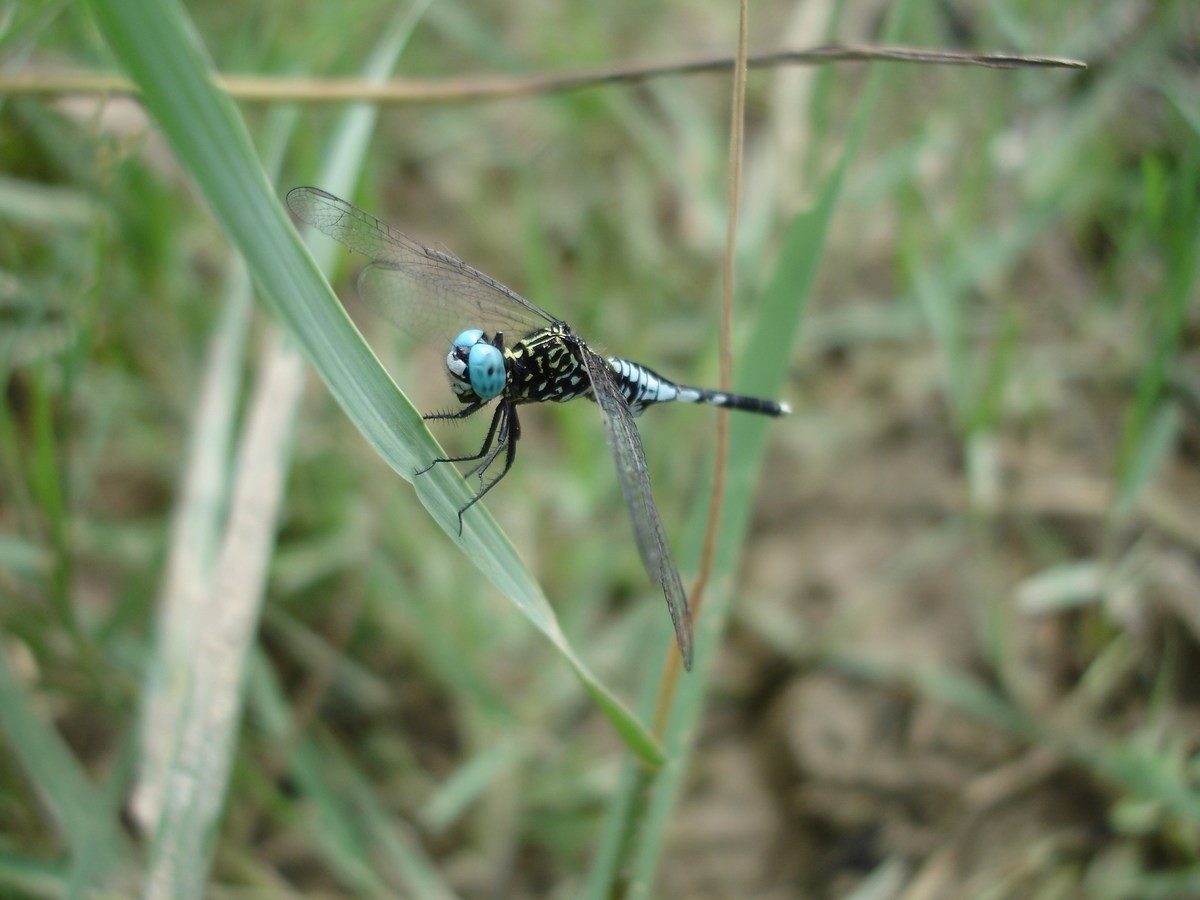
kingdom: Animalia
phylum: Arthropoda
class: Insecta
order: Odonata
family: Libellulidae
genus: Acisoma
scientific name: Acisoma inflatum
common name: Stout pintail
